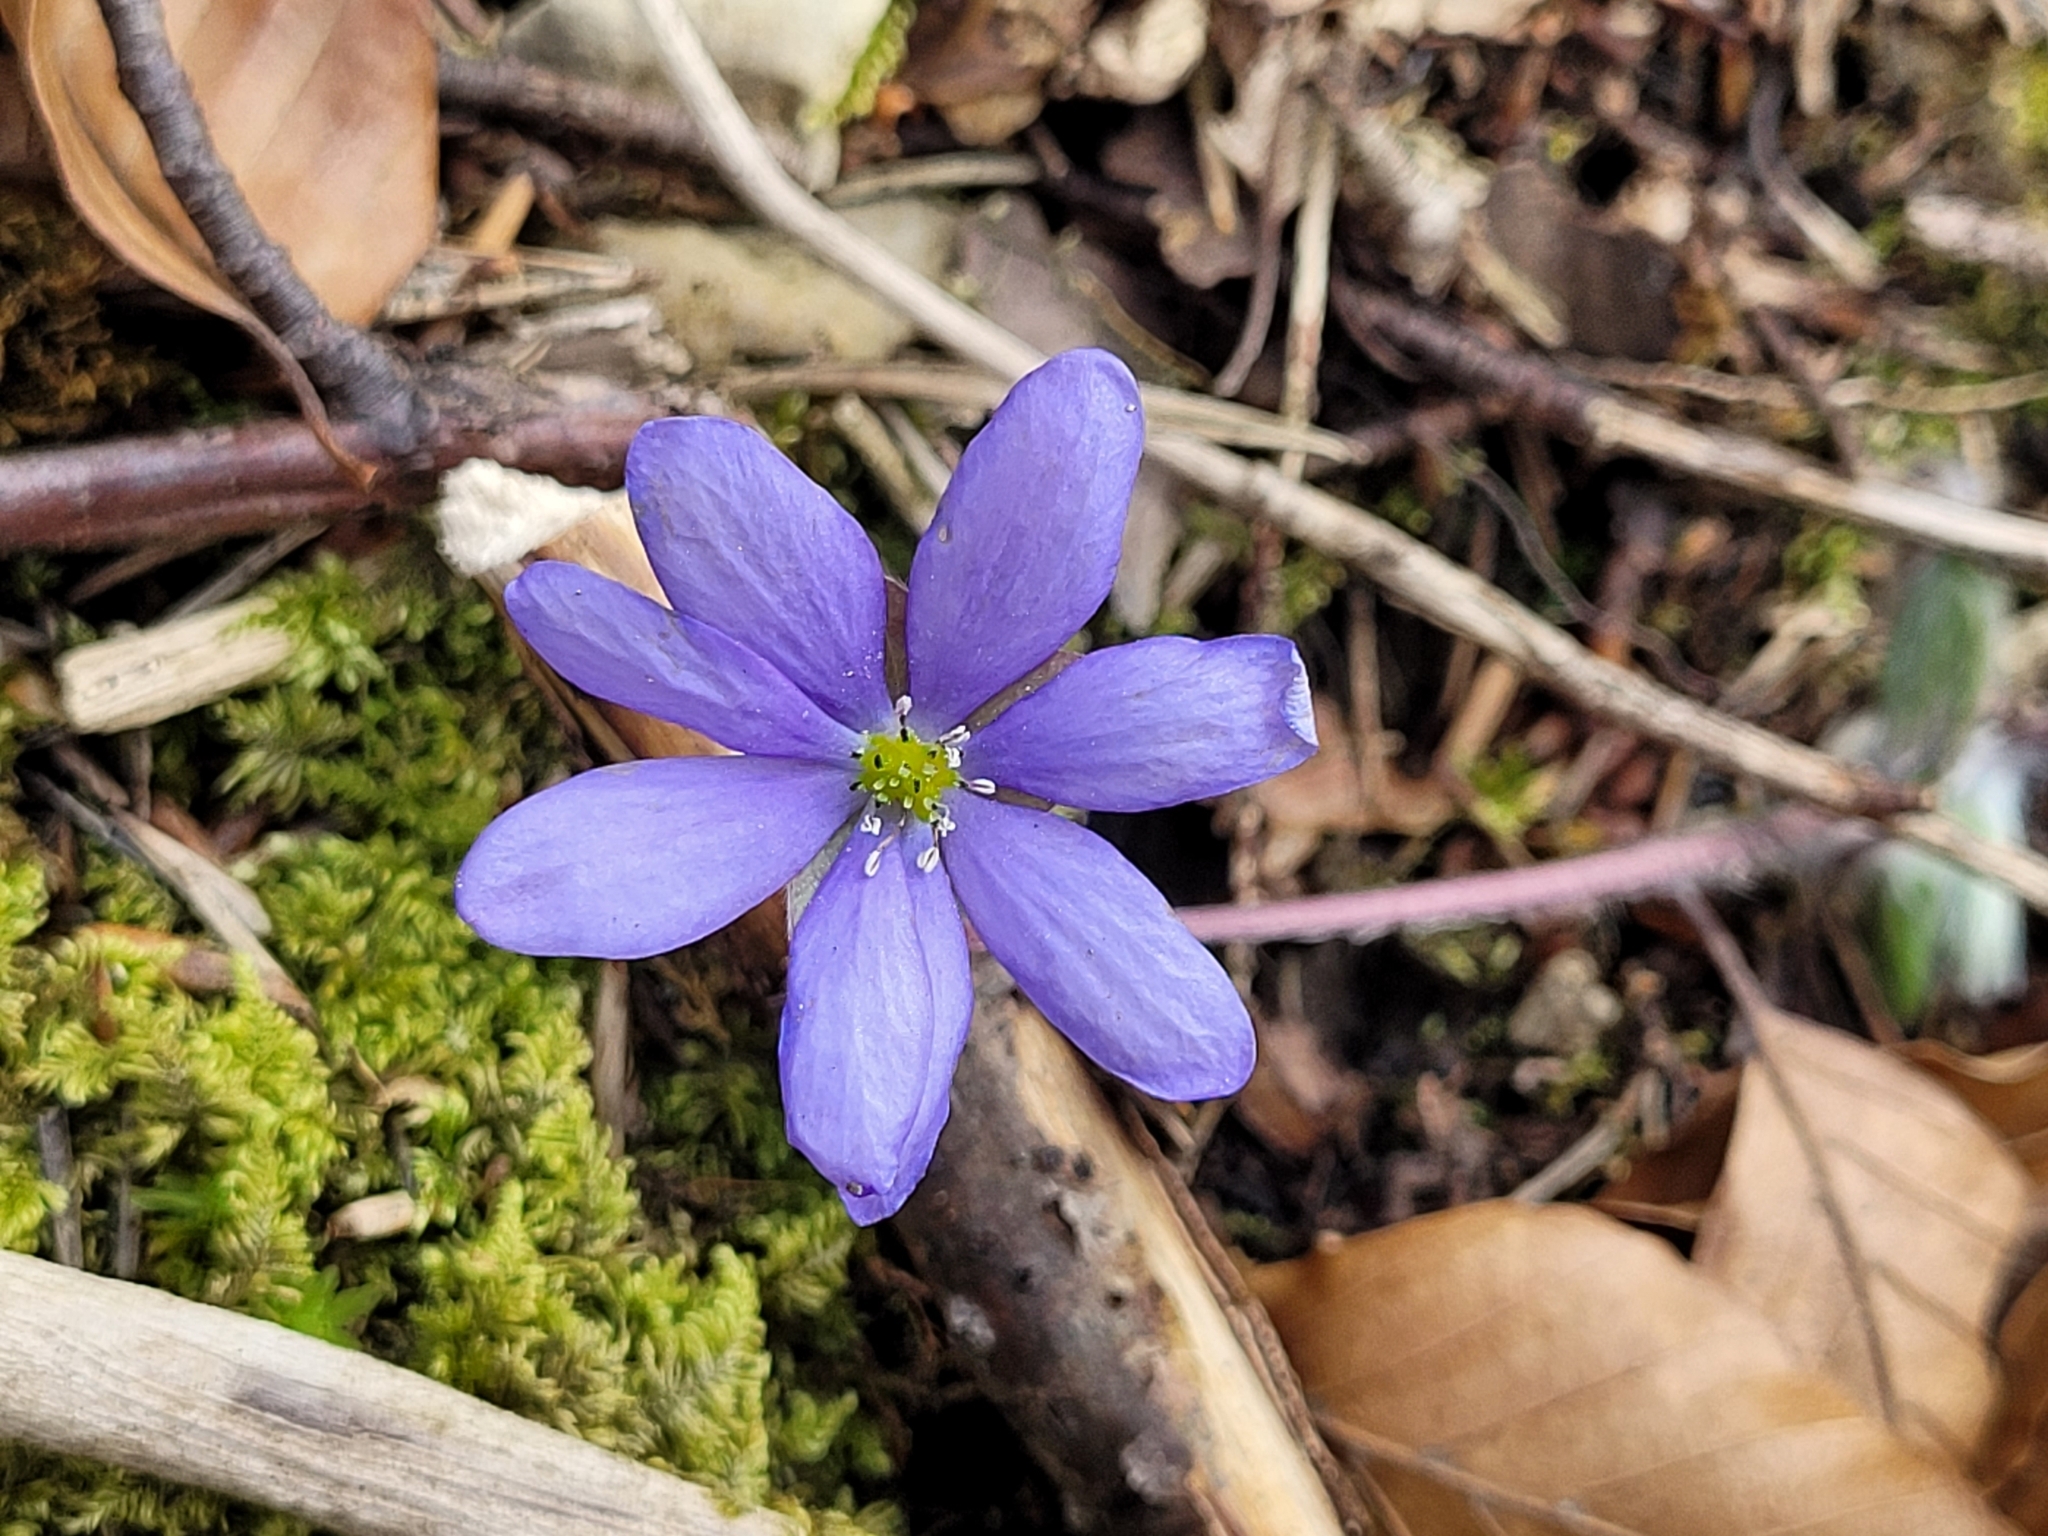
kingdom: Plantae
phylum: Tracheophyta
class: Magnoliopsida
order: Ranunculales
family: Ranunculaceae
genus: Hepatica
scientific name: Hepatica nobilis
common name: Liverleaf
